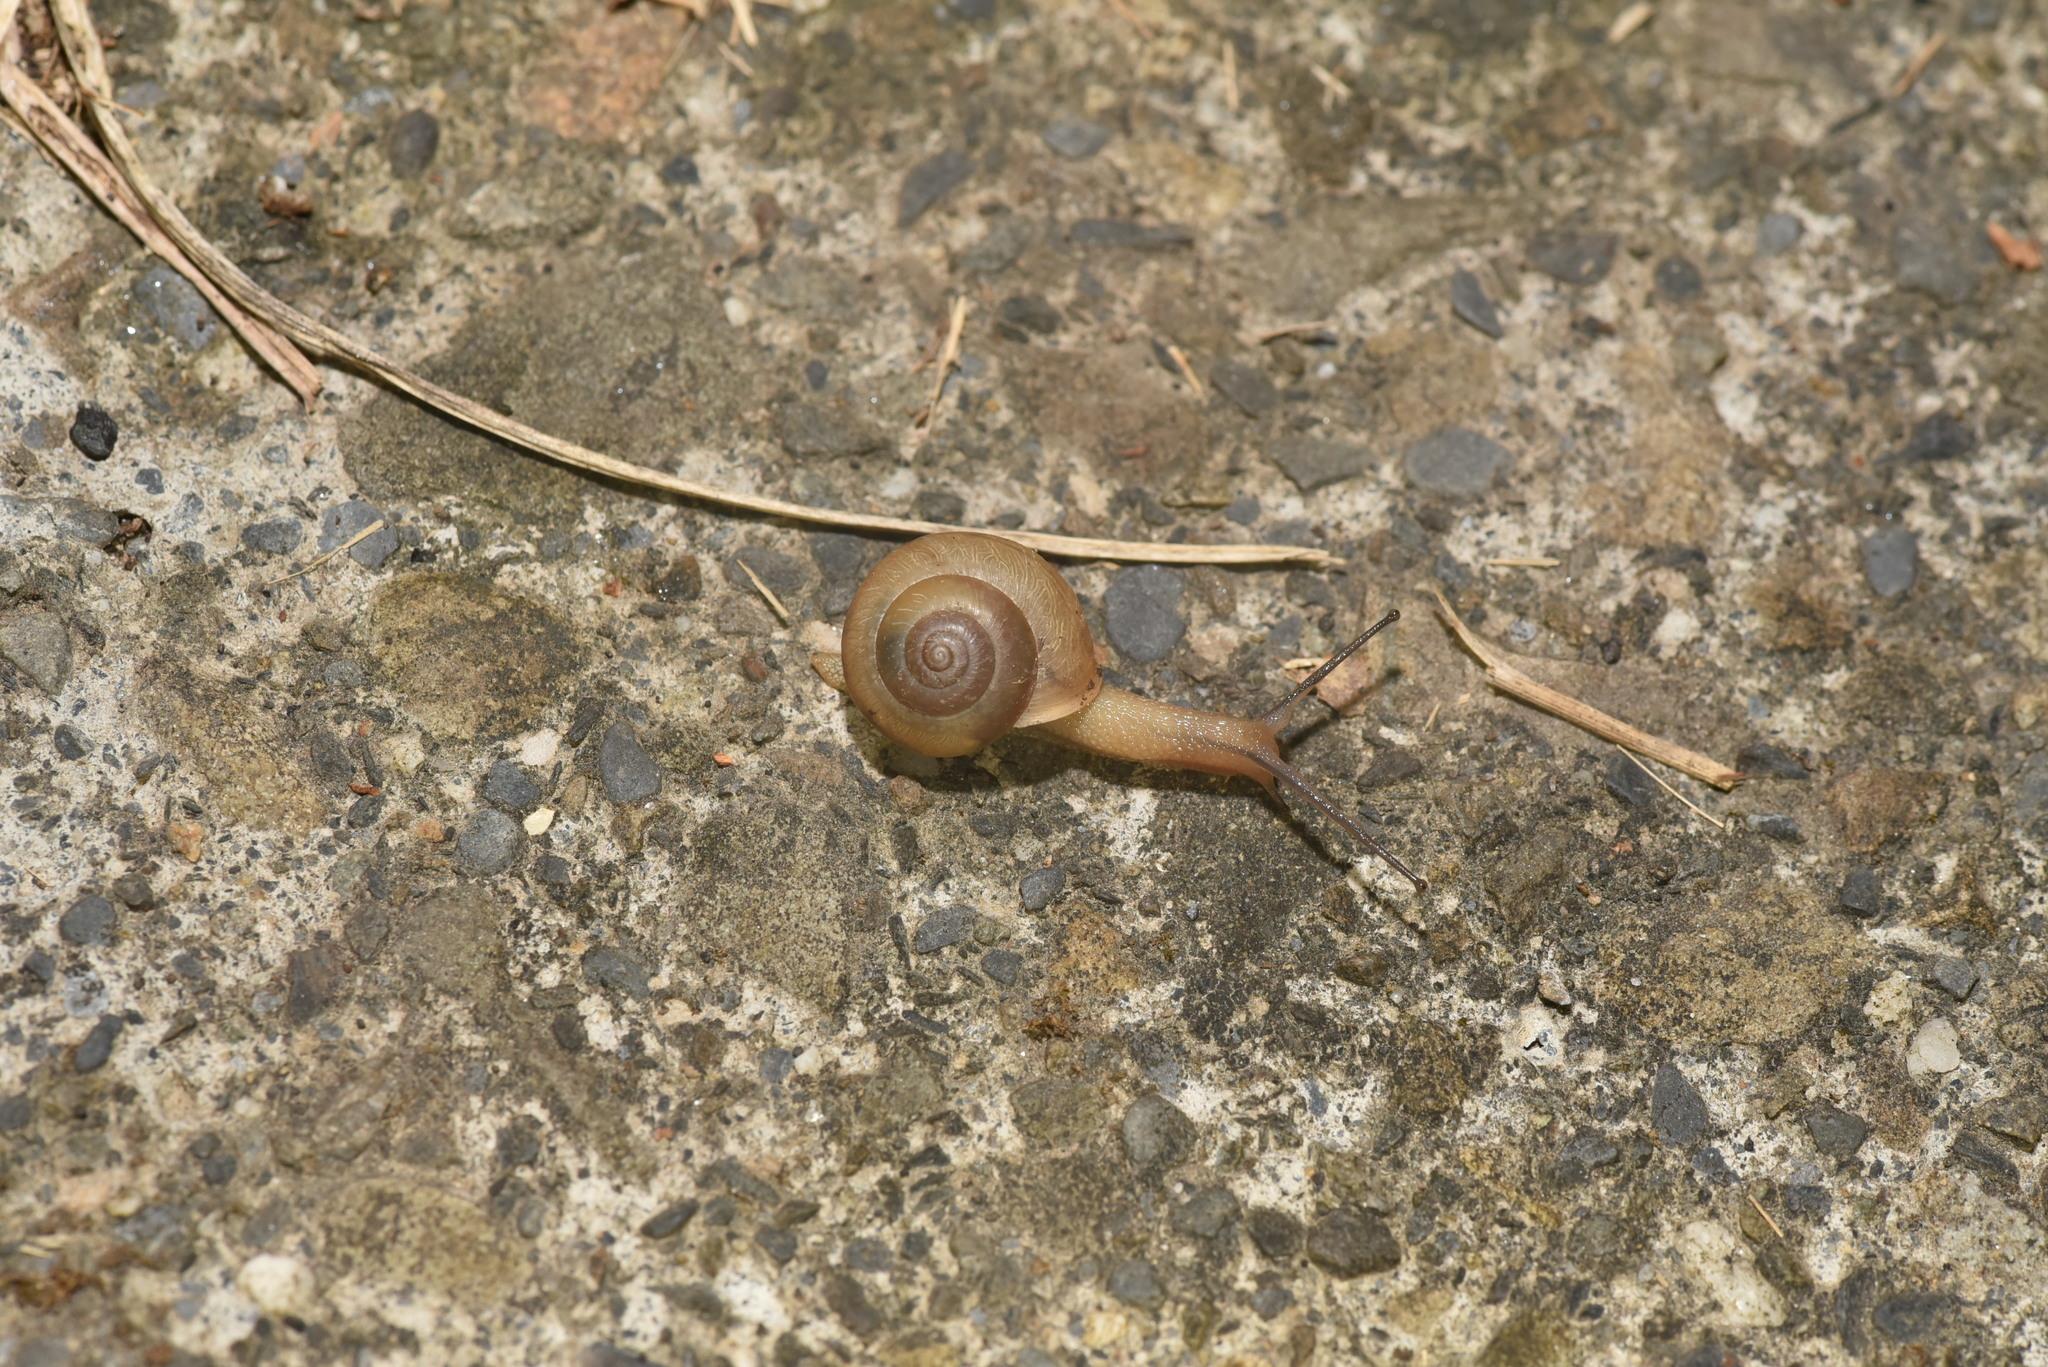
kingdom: Animalia
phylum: Mollusca
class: Gastropoda
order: Stylommatophora
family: Camaenidae
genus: Bradybaena
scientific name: Bradybaena similaris
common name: Asian trampsnail
